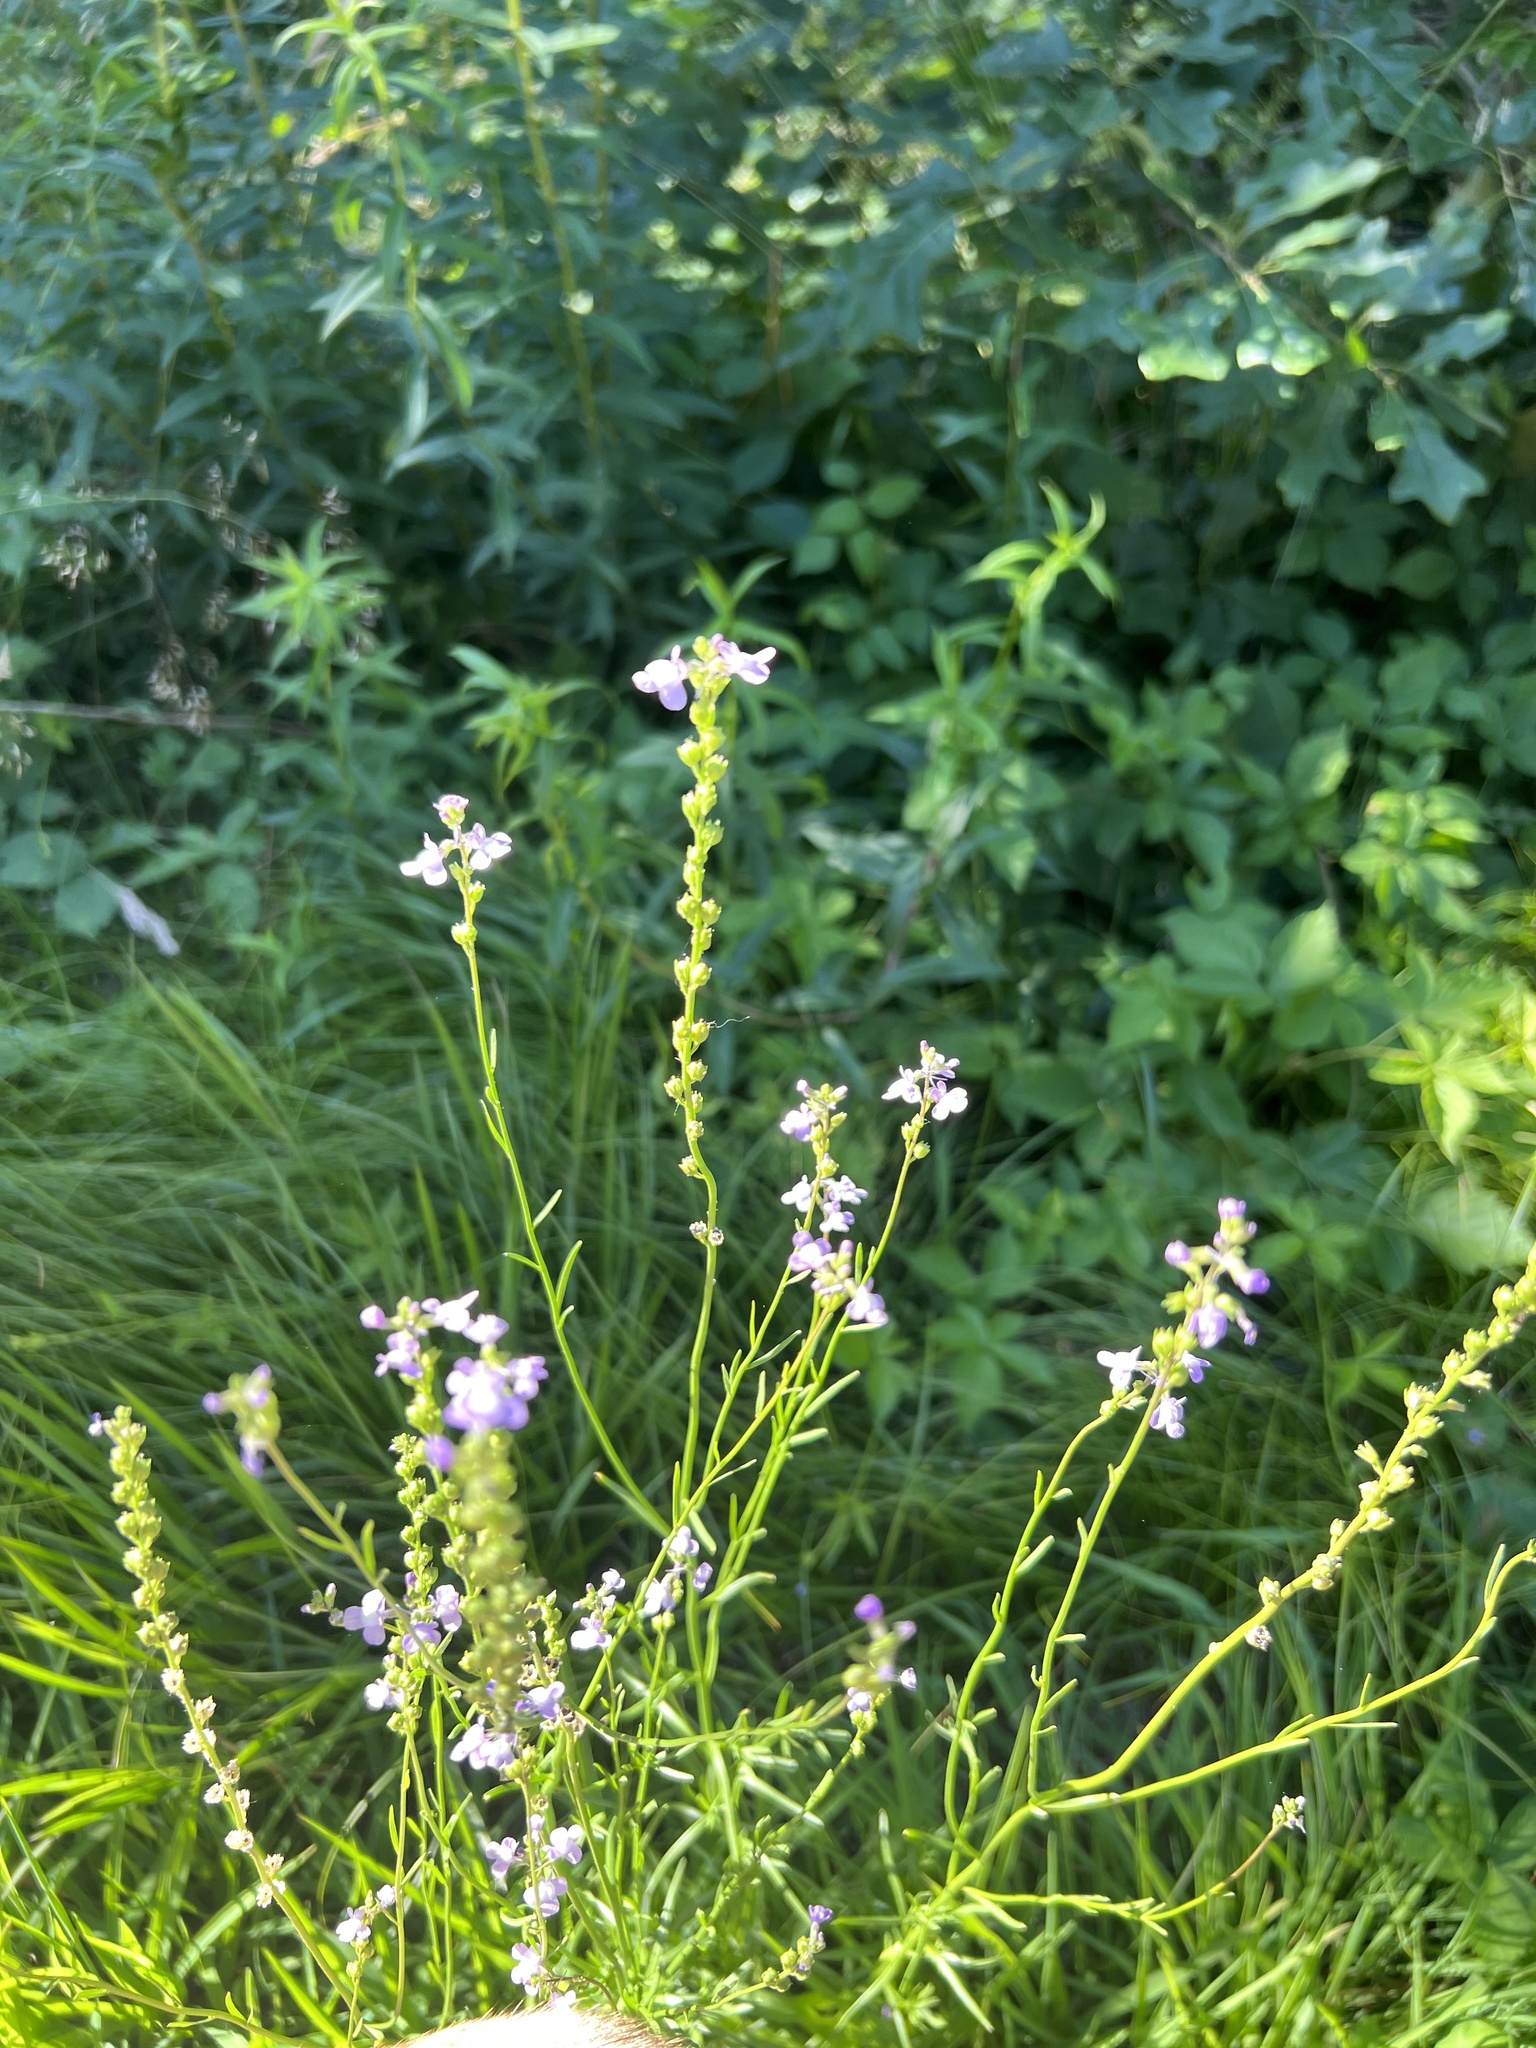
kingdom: Plantae
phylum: Tracheophyta
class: Magnoliopsida
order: Lamiales
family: Plantaginaceae
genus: Nuttallanthus
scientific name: Nuttallanthus canadensis
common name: Blue toadflax
